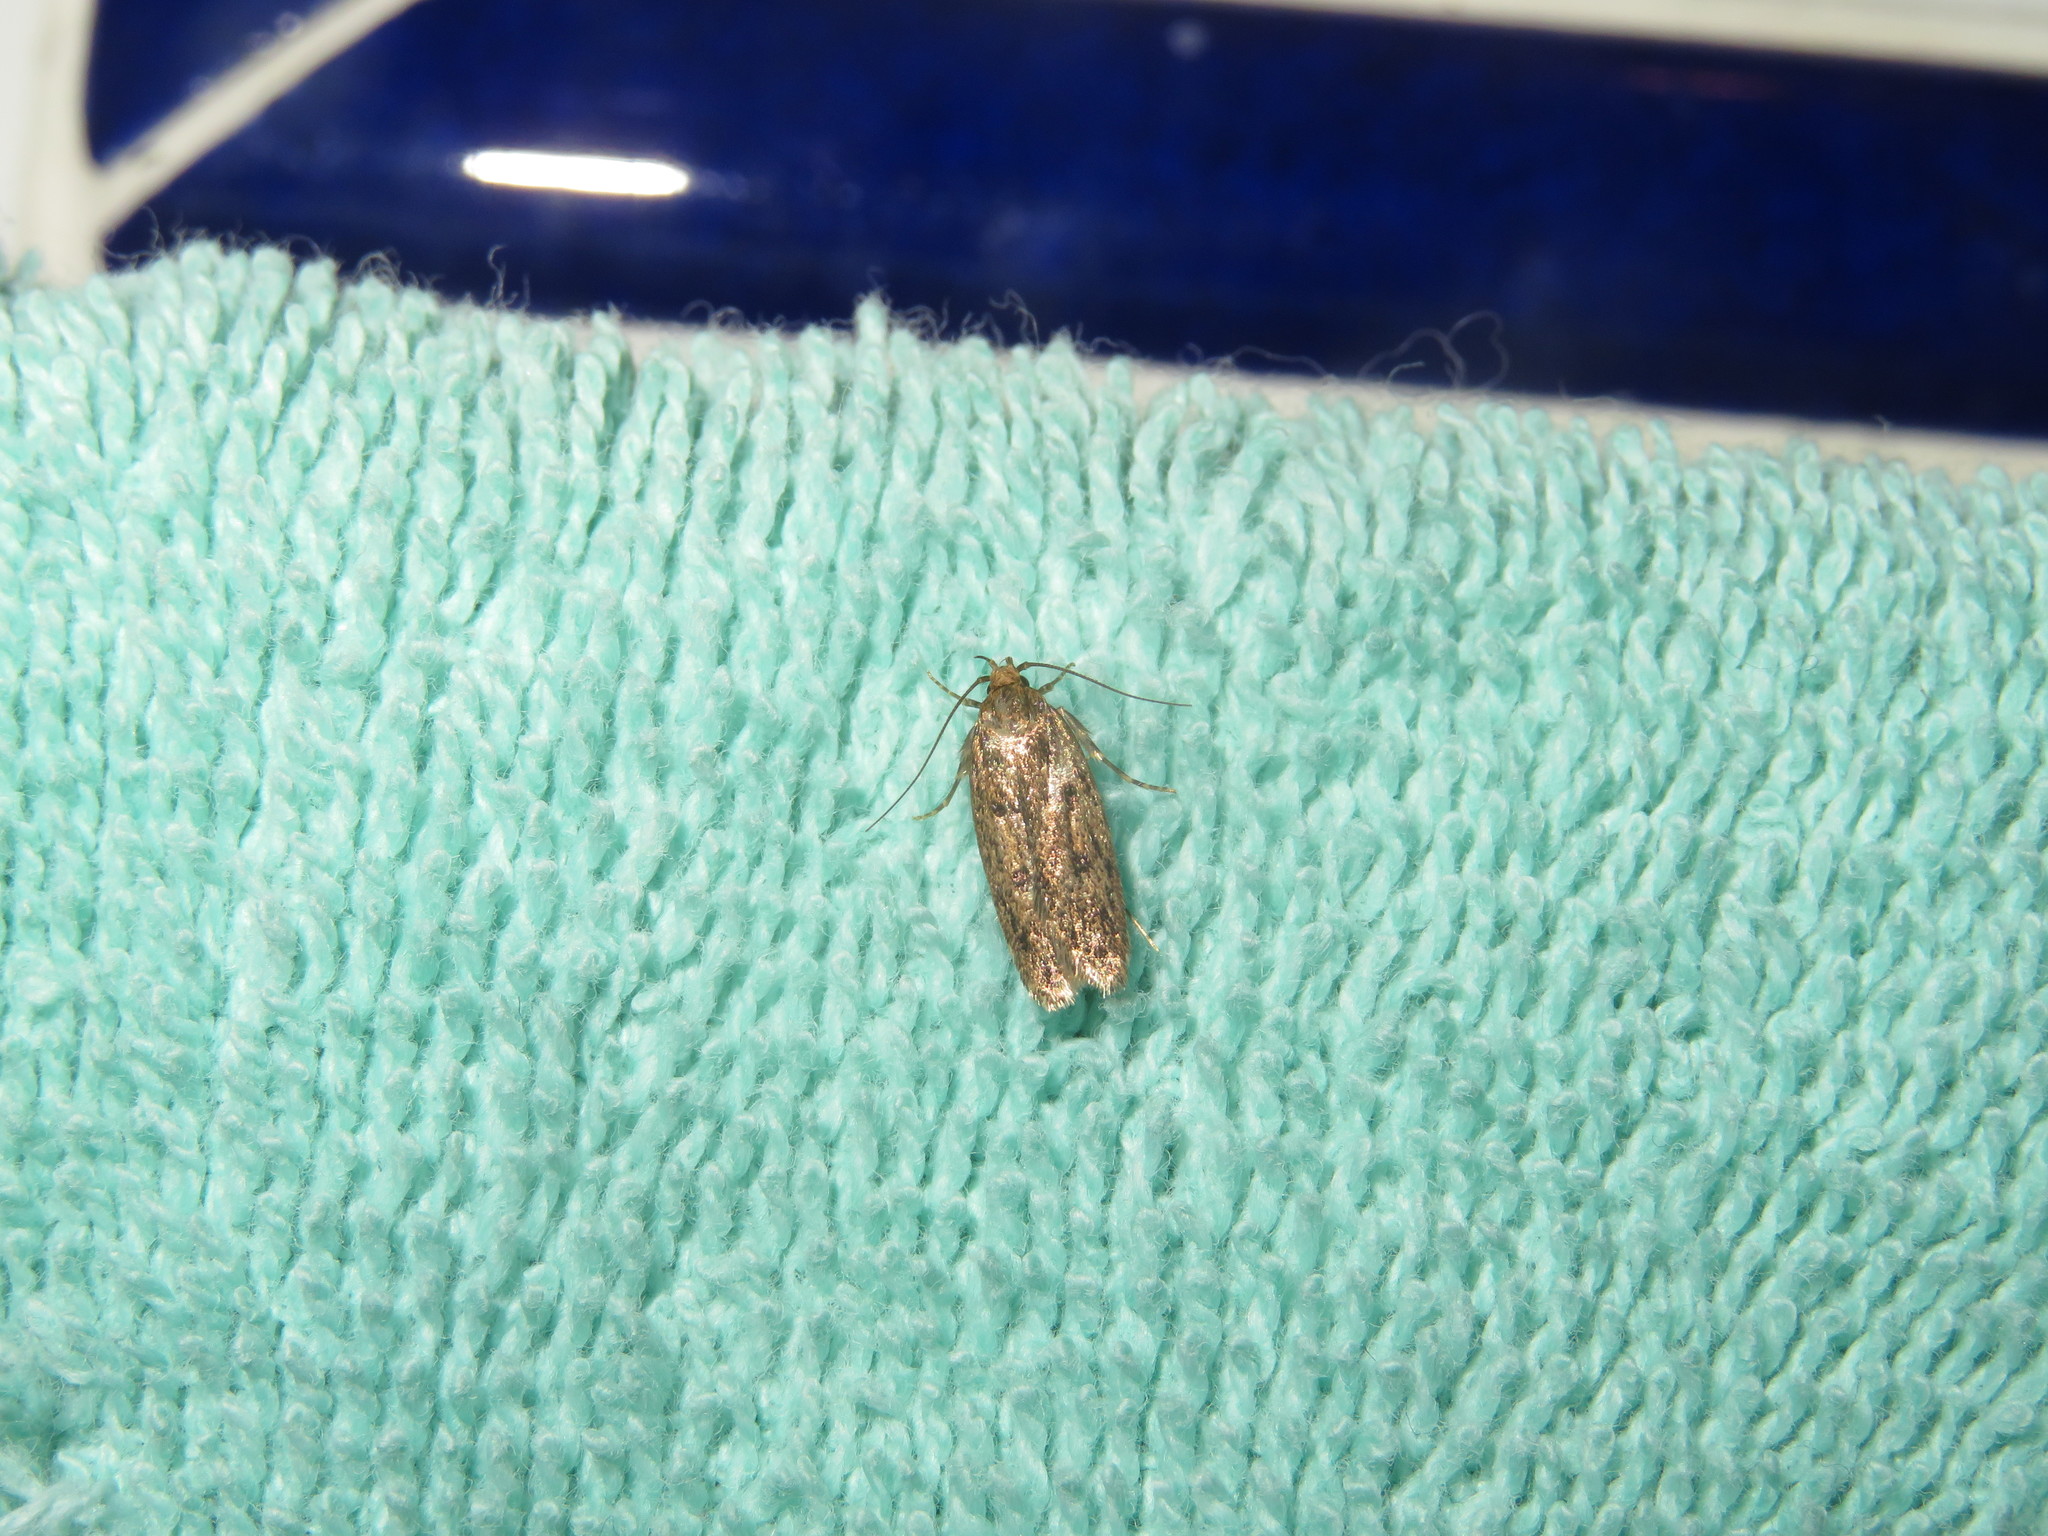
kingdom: Animalia
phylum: Arthropoda
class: Insecta
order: Lepidoptera
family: Oecophoridae
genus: Hofmannophila
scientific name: Hofmannophila pseudospretella
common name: Brown house moth
